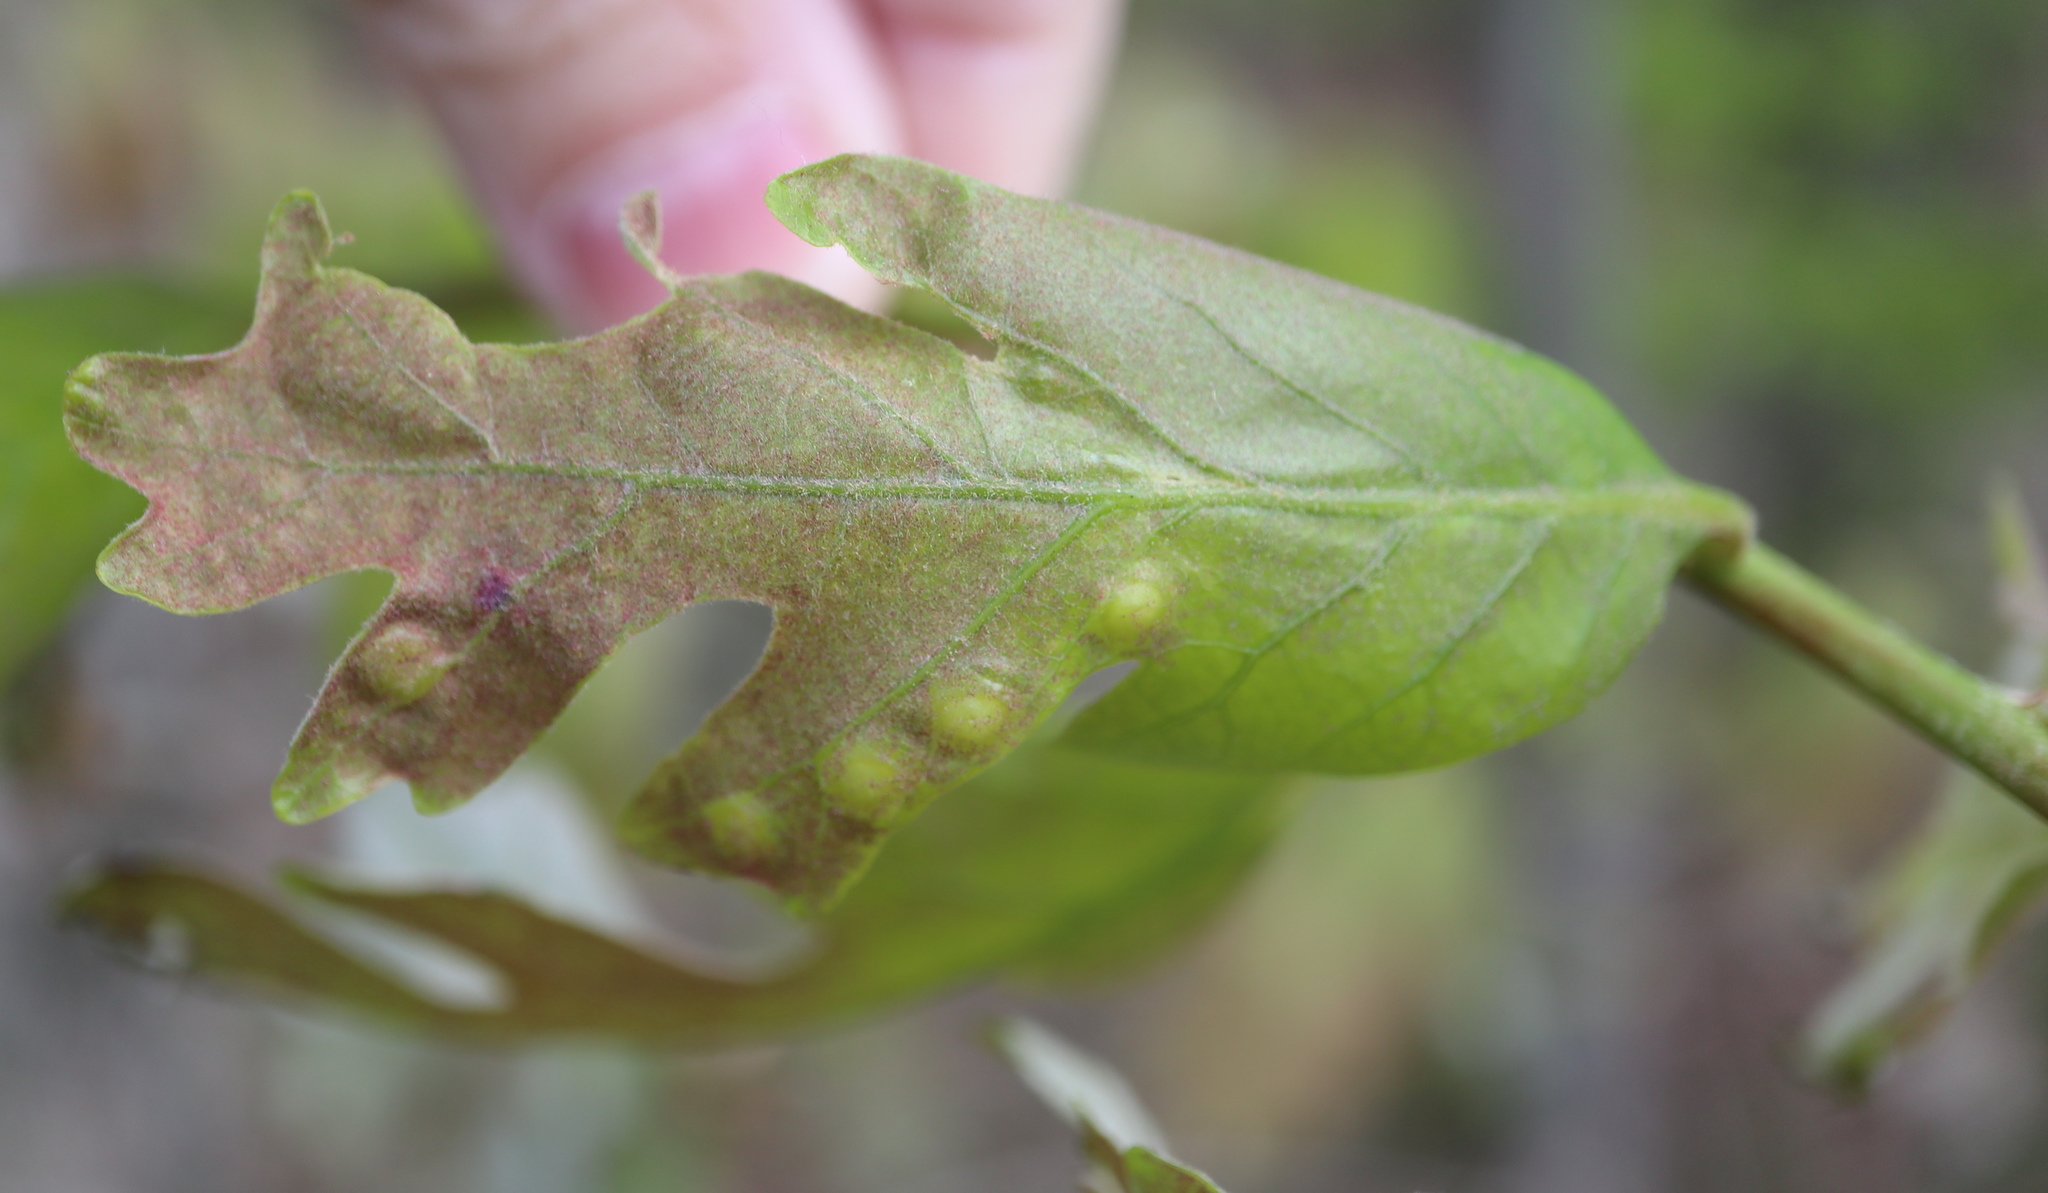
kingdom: Animalia
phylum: Arthropoda
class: Insecta
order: Hymenoptera
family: Cynipidae
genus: Callirhytis
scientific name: Callirhytis
